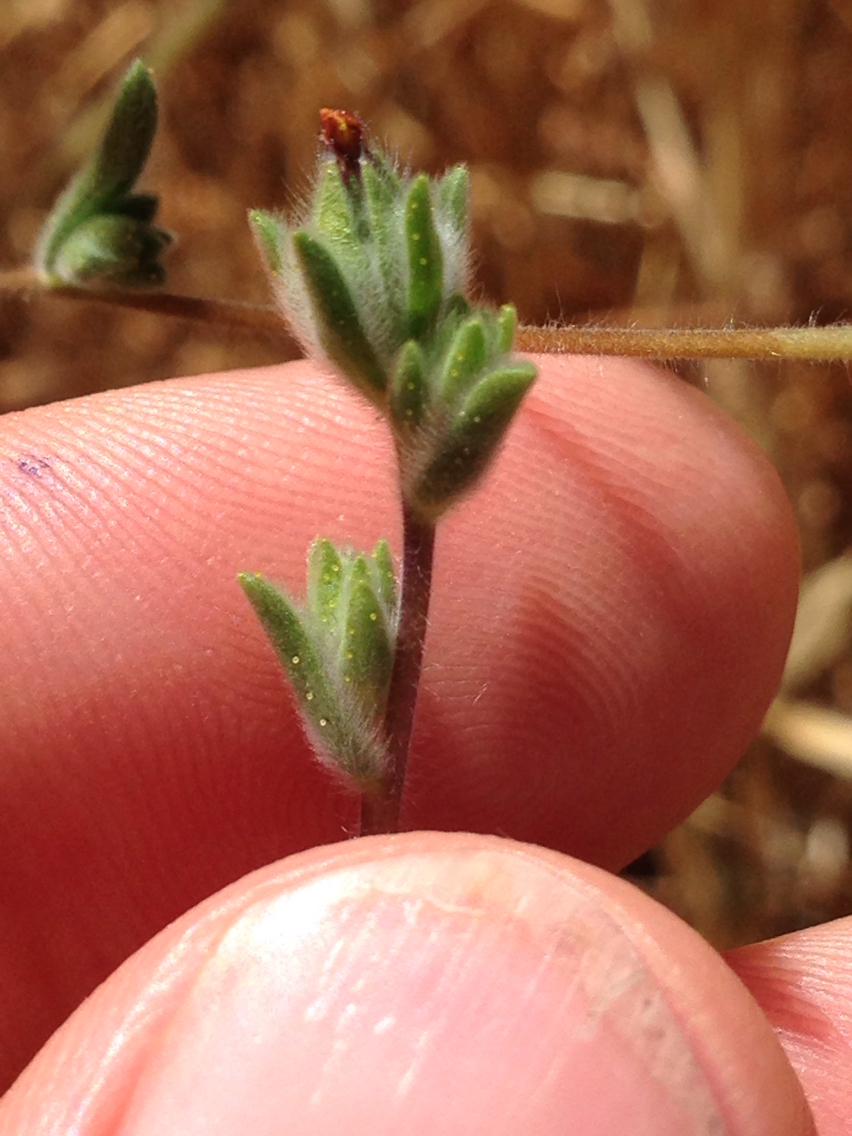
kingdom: Plantae
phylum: Tracheophyta
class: Magnoliopsida
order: Asterales
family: Asteraceae
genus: Lagophylla
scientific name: Lagophylla ramosissima
